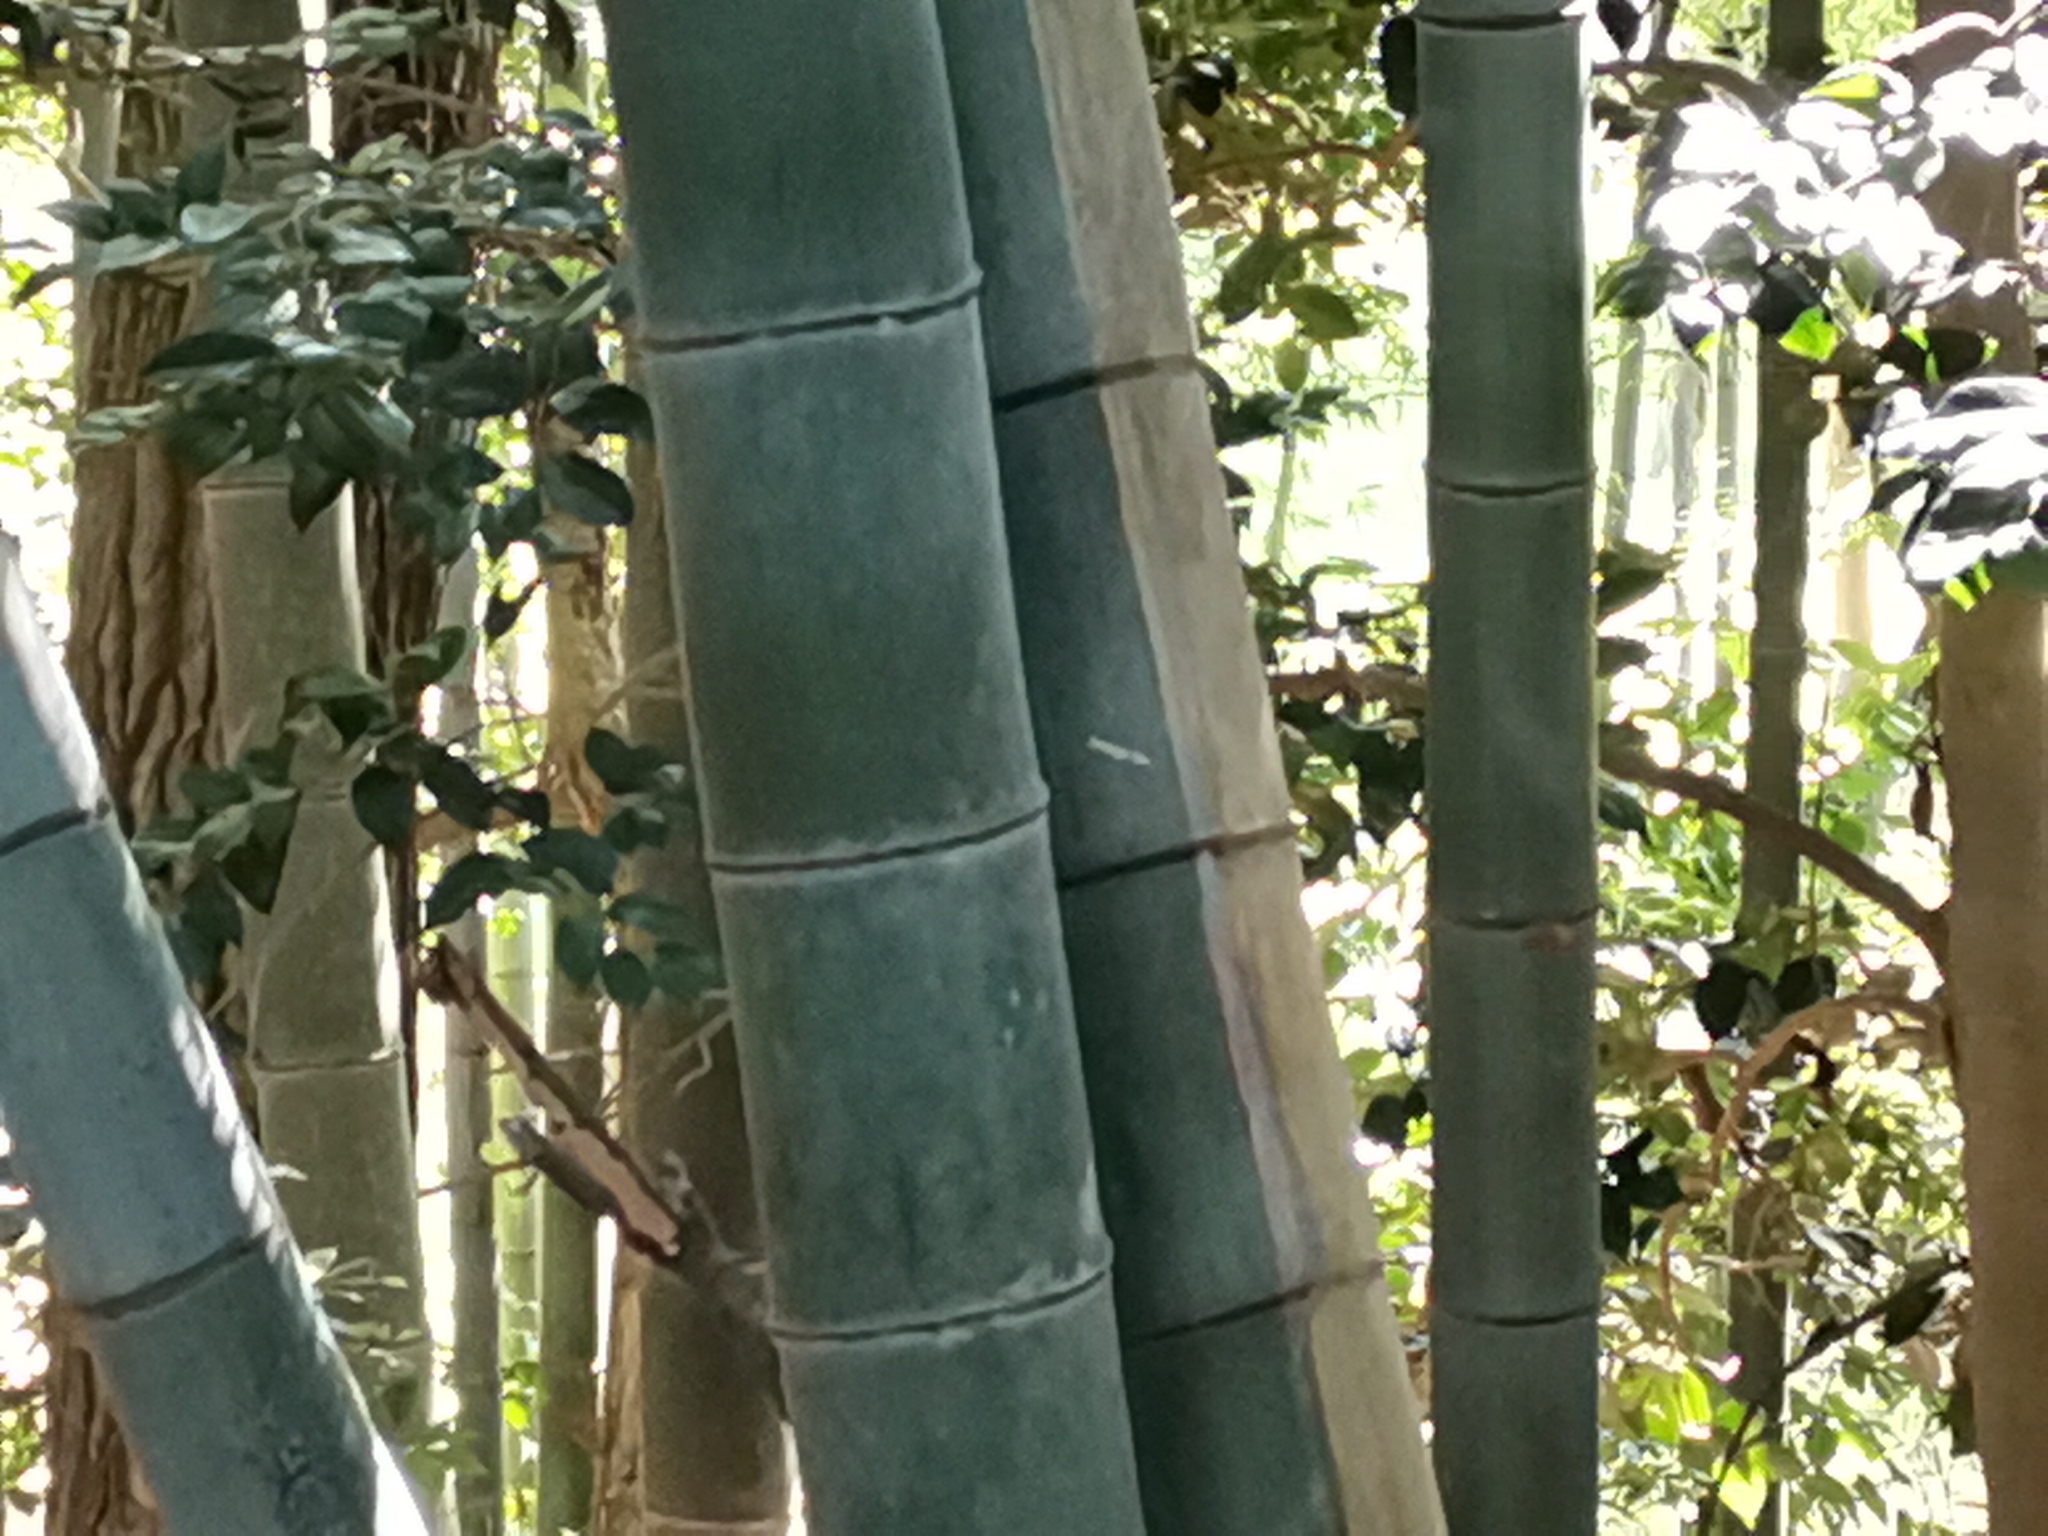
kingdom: Plantae
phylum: Tracheophyta
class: Liliopsida
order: Poales
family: Poaceae
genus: Phyllostachys
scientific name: Phyllostachys edulis
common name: Tortoise shell bamboo
